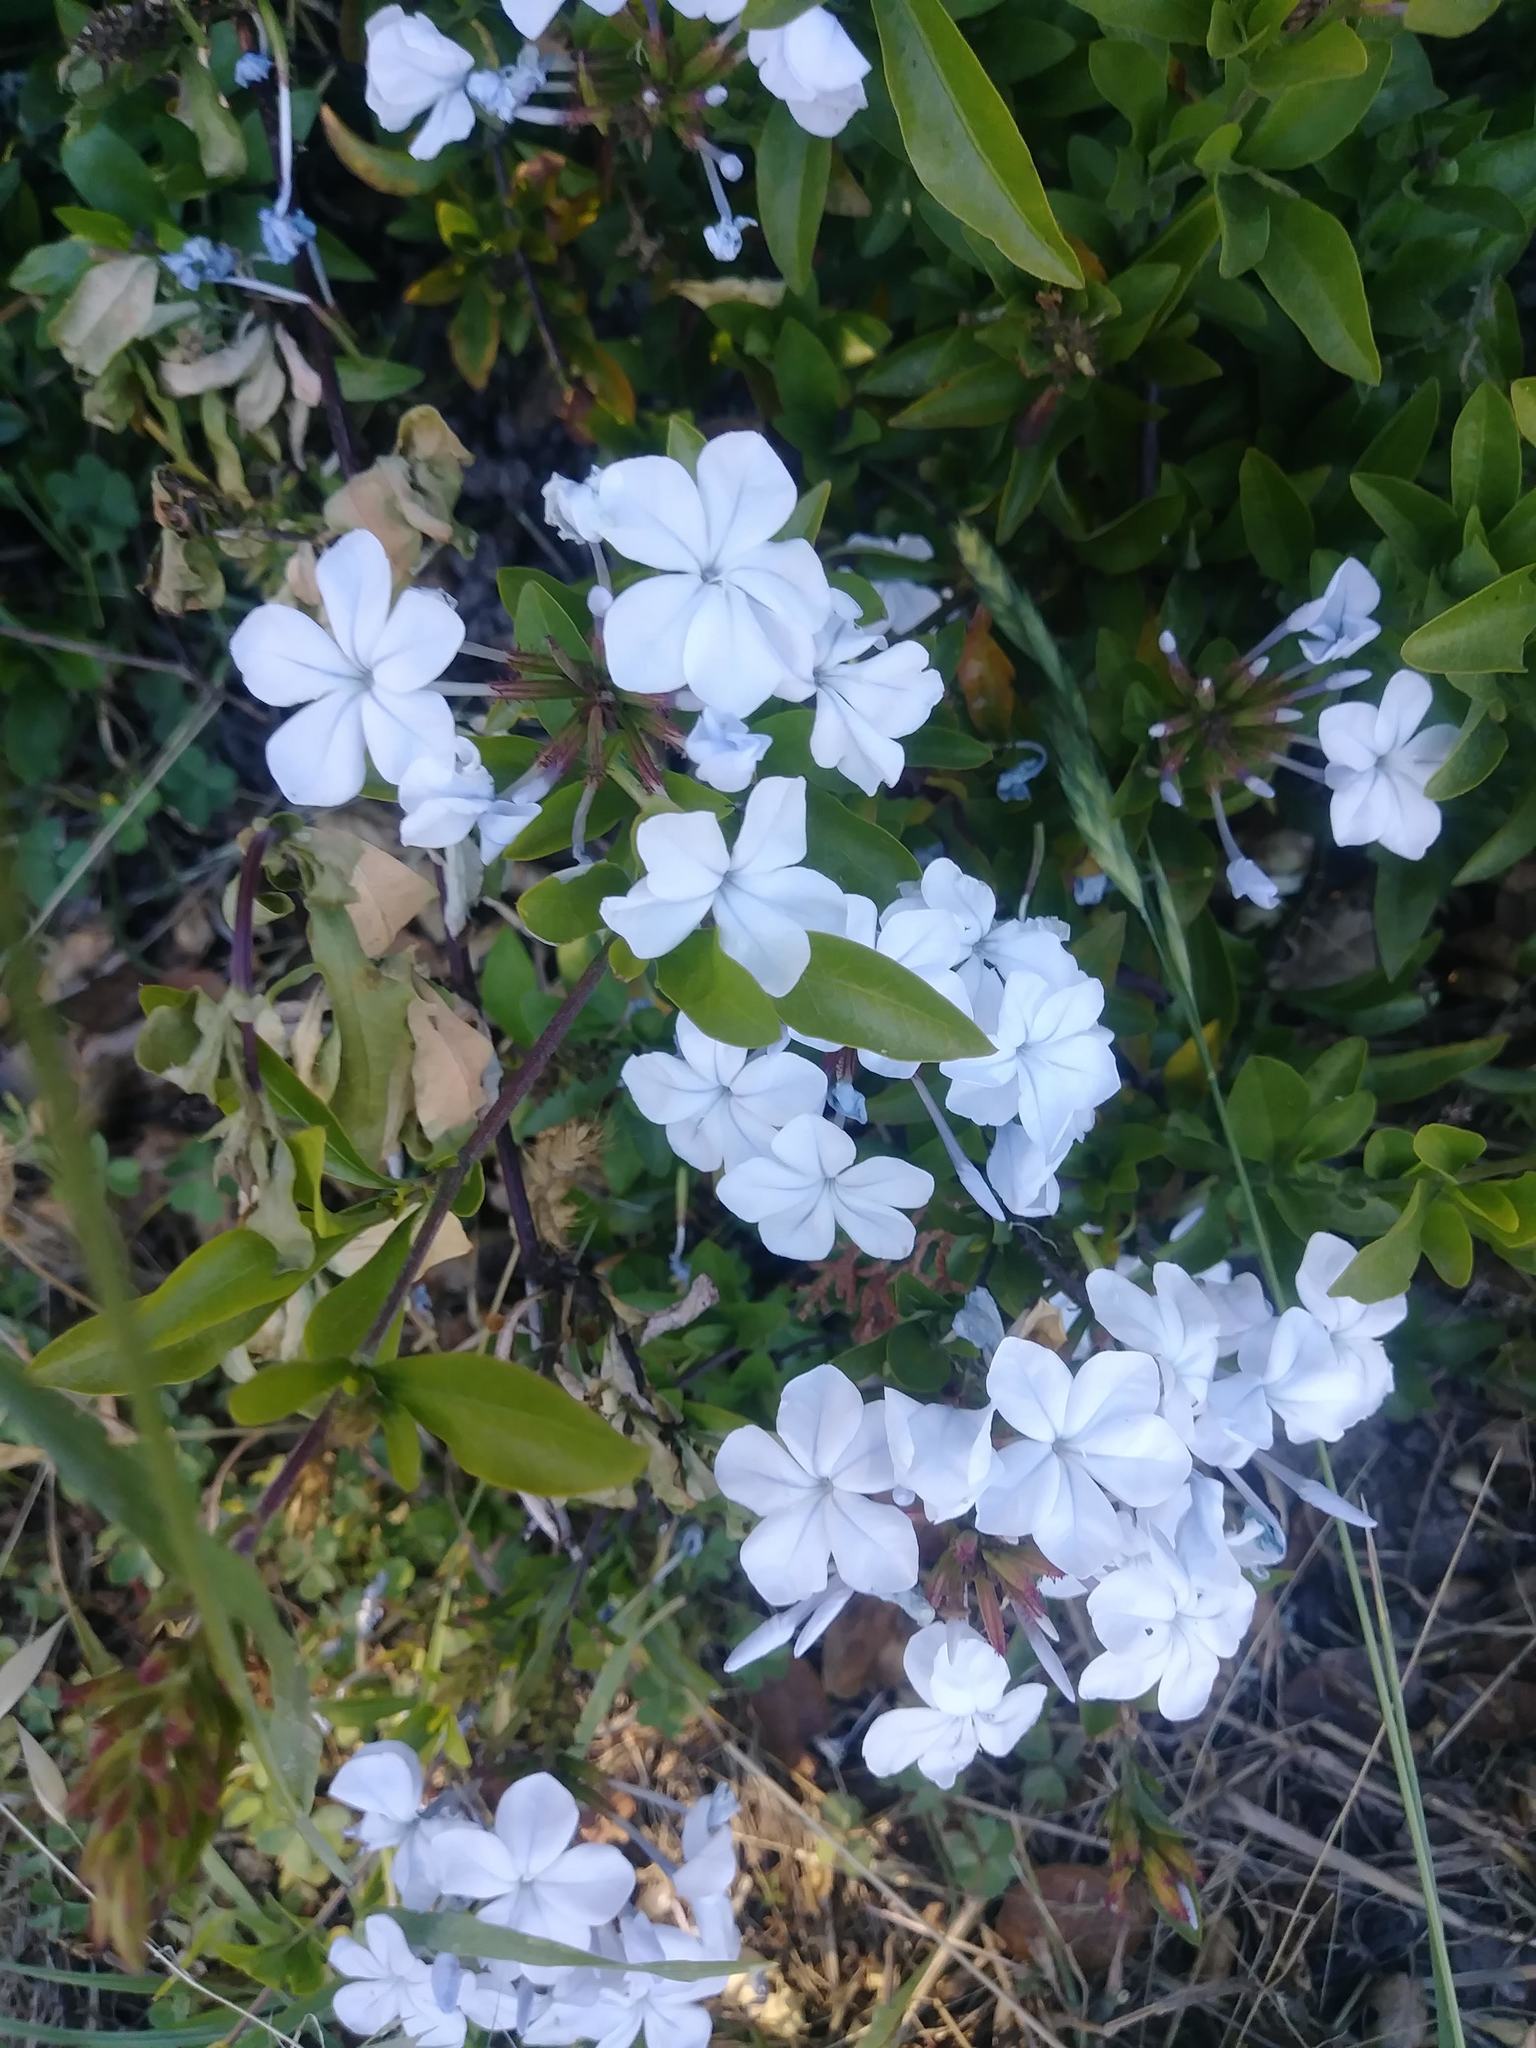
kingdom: Plantae
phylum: Tracheophyta
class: Magnoliopsida
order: Caryophyllales
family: Plumbaginaceae
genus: Plumbago
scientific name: Plumbago auriculata
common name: Cape leadwort
